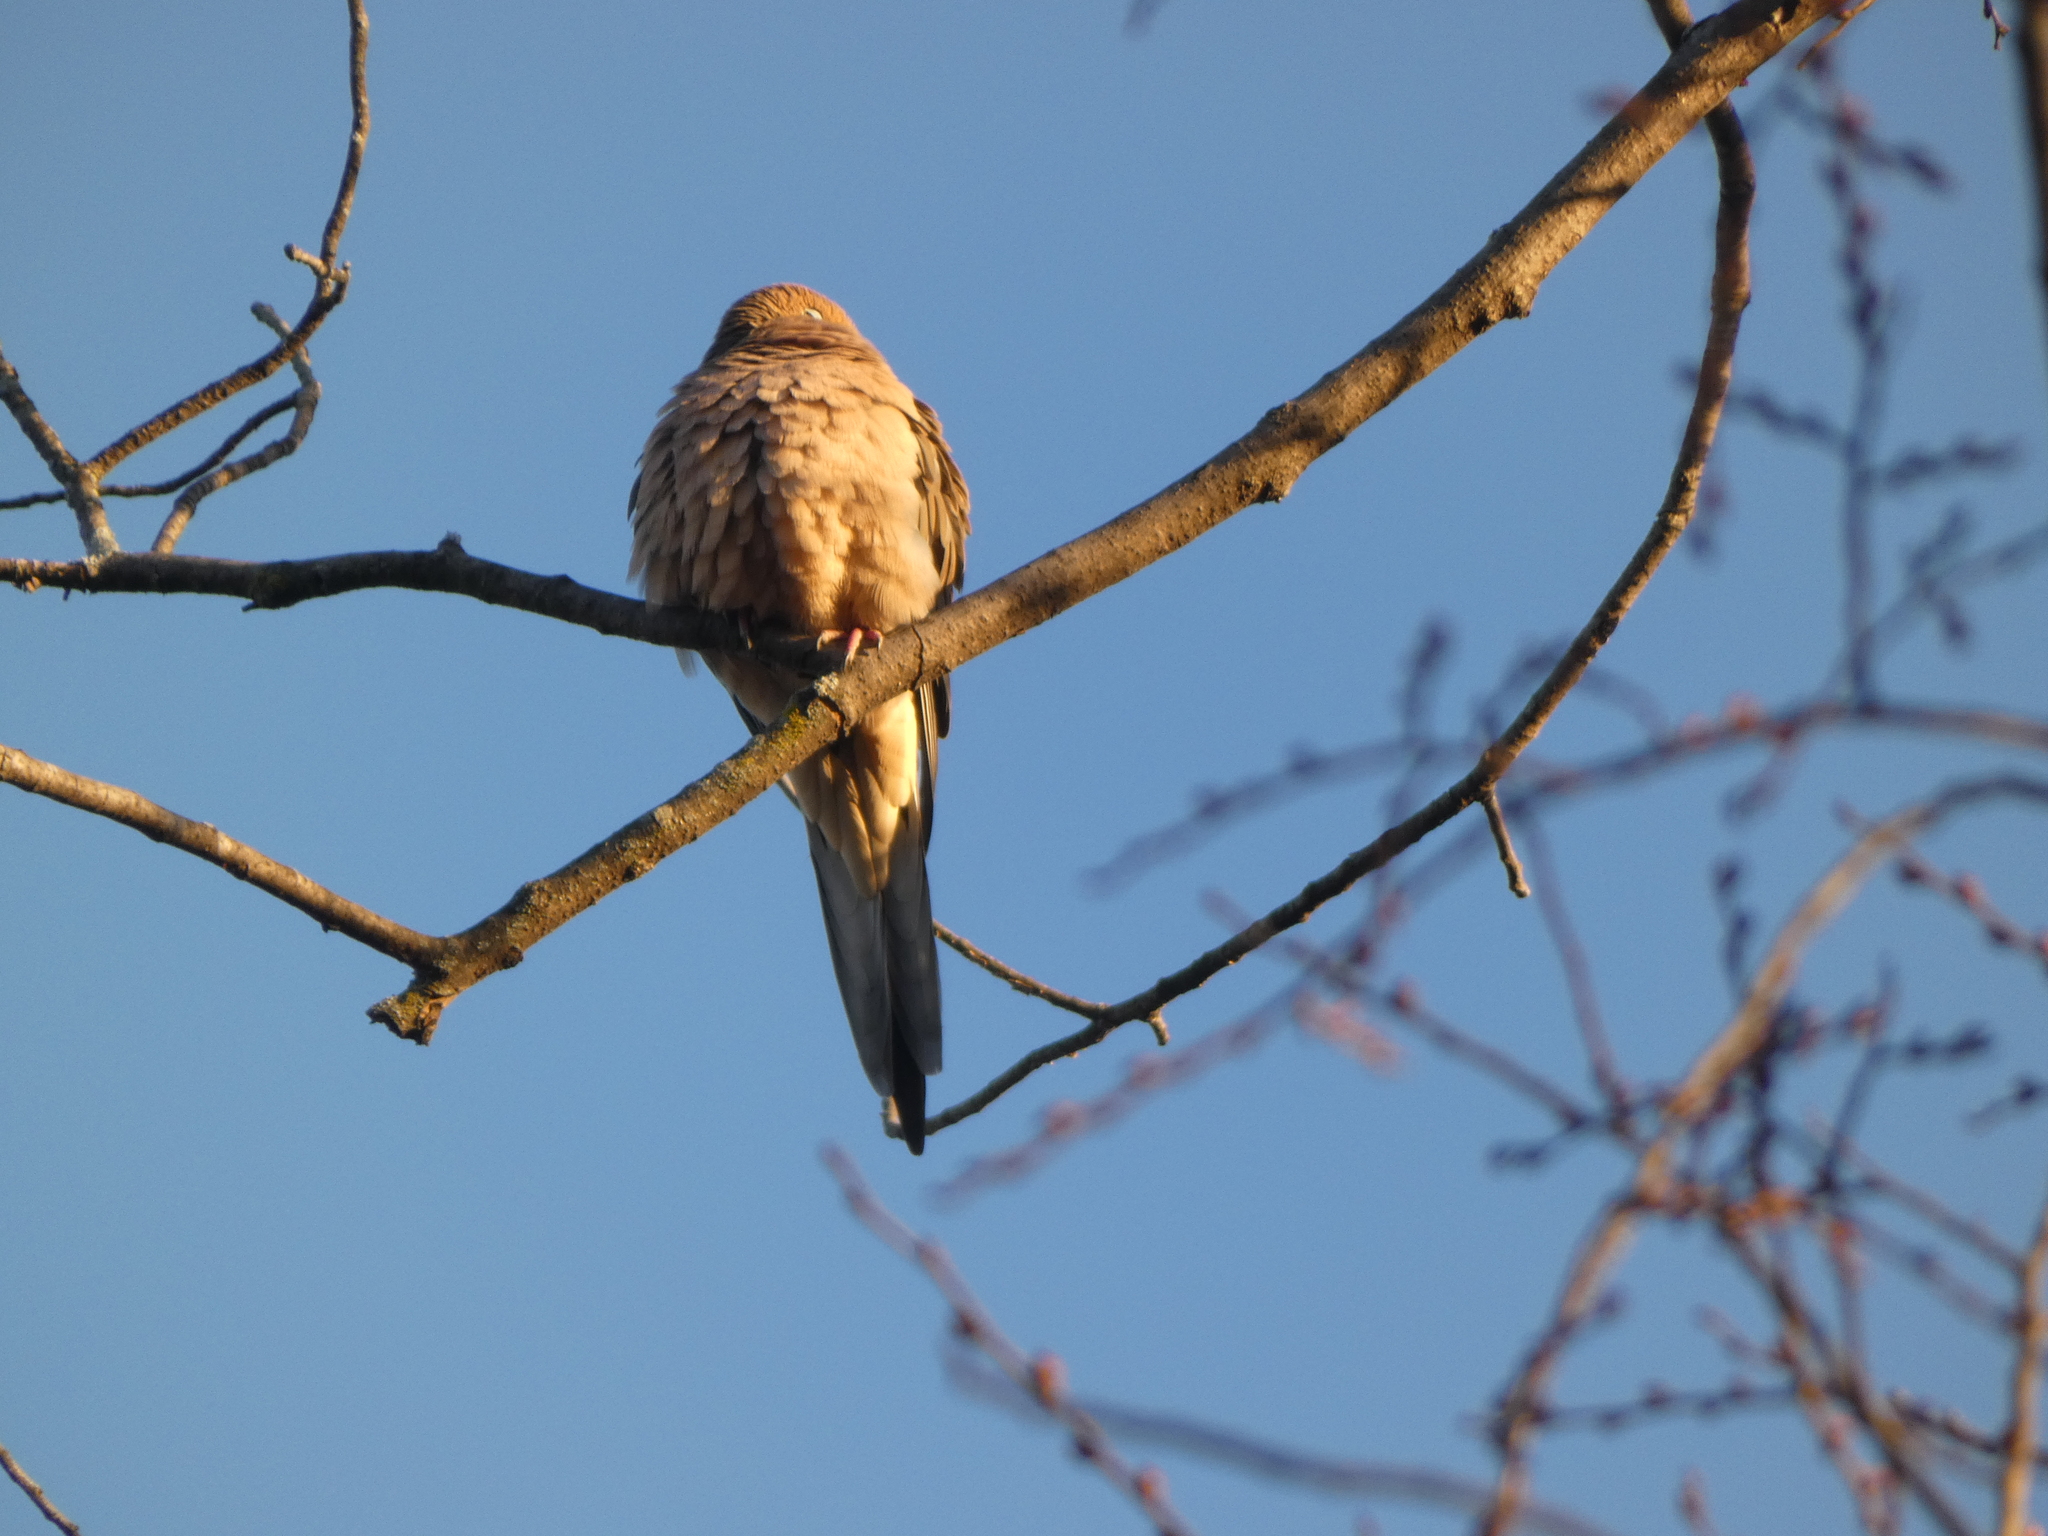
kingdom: Animalia
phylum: Chordata
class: Aves
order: Columbiformes
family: Columbidae
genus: Zenaida
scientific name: Zenaida macroura
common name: Mourning dove
